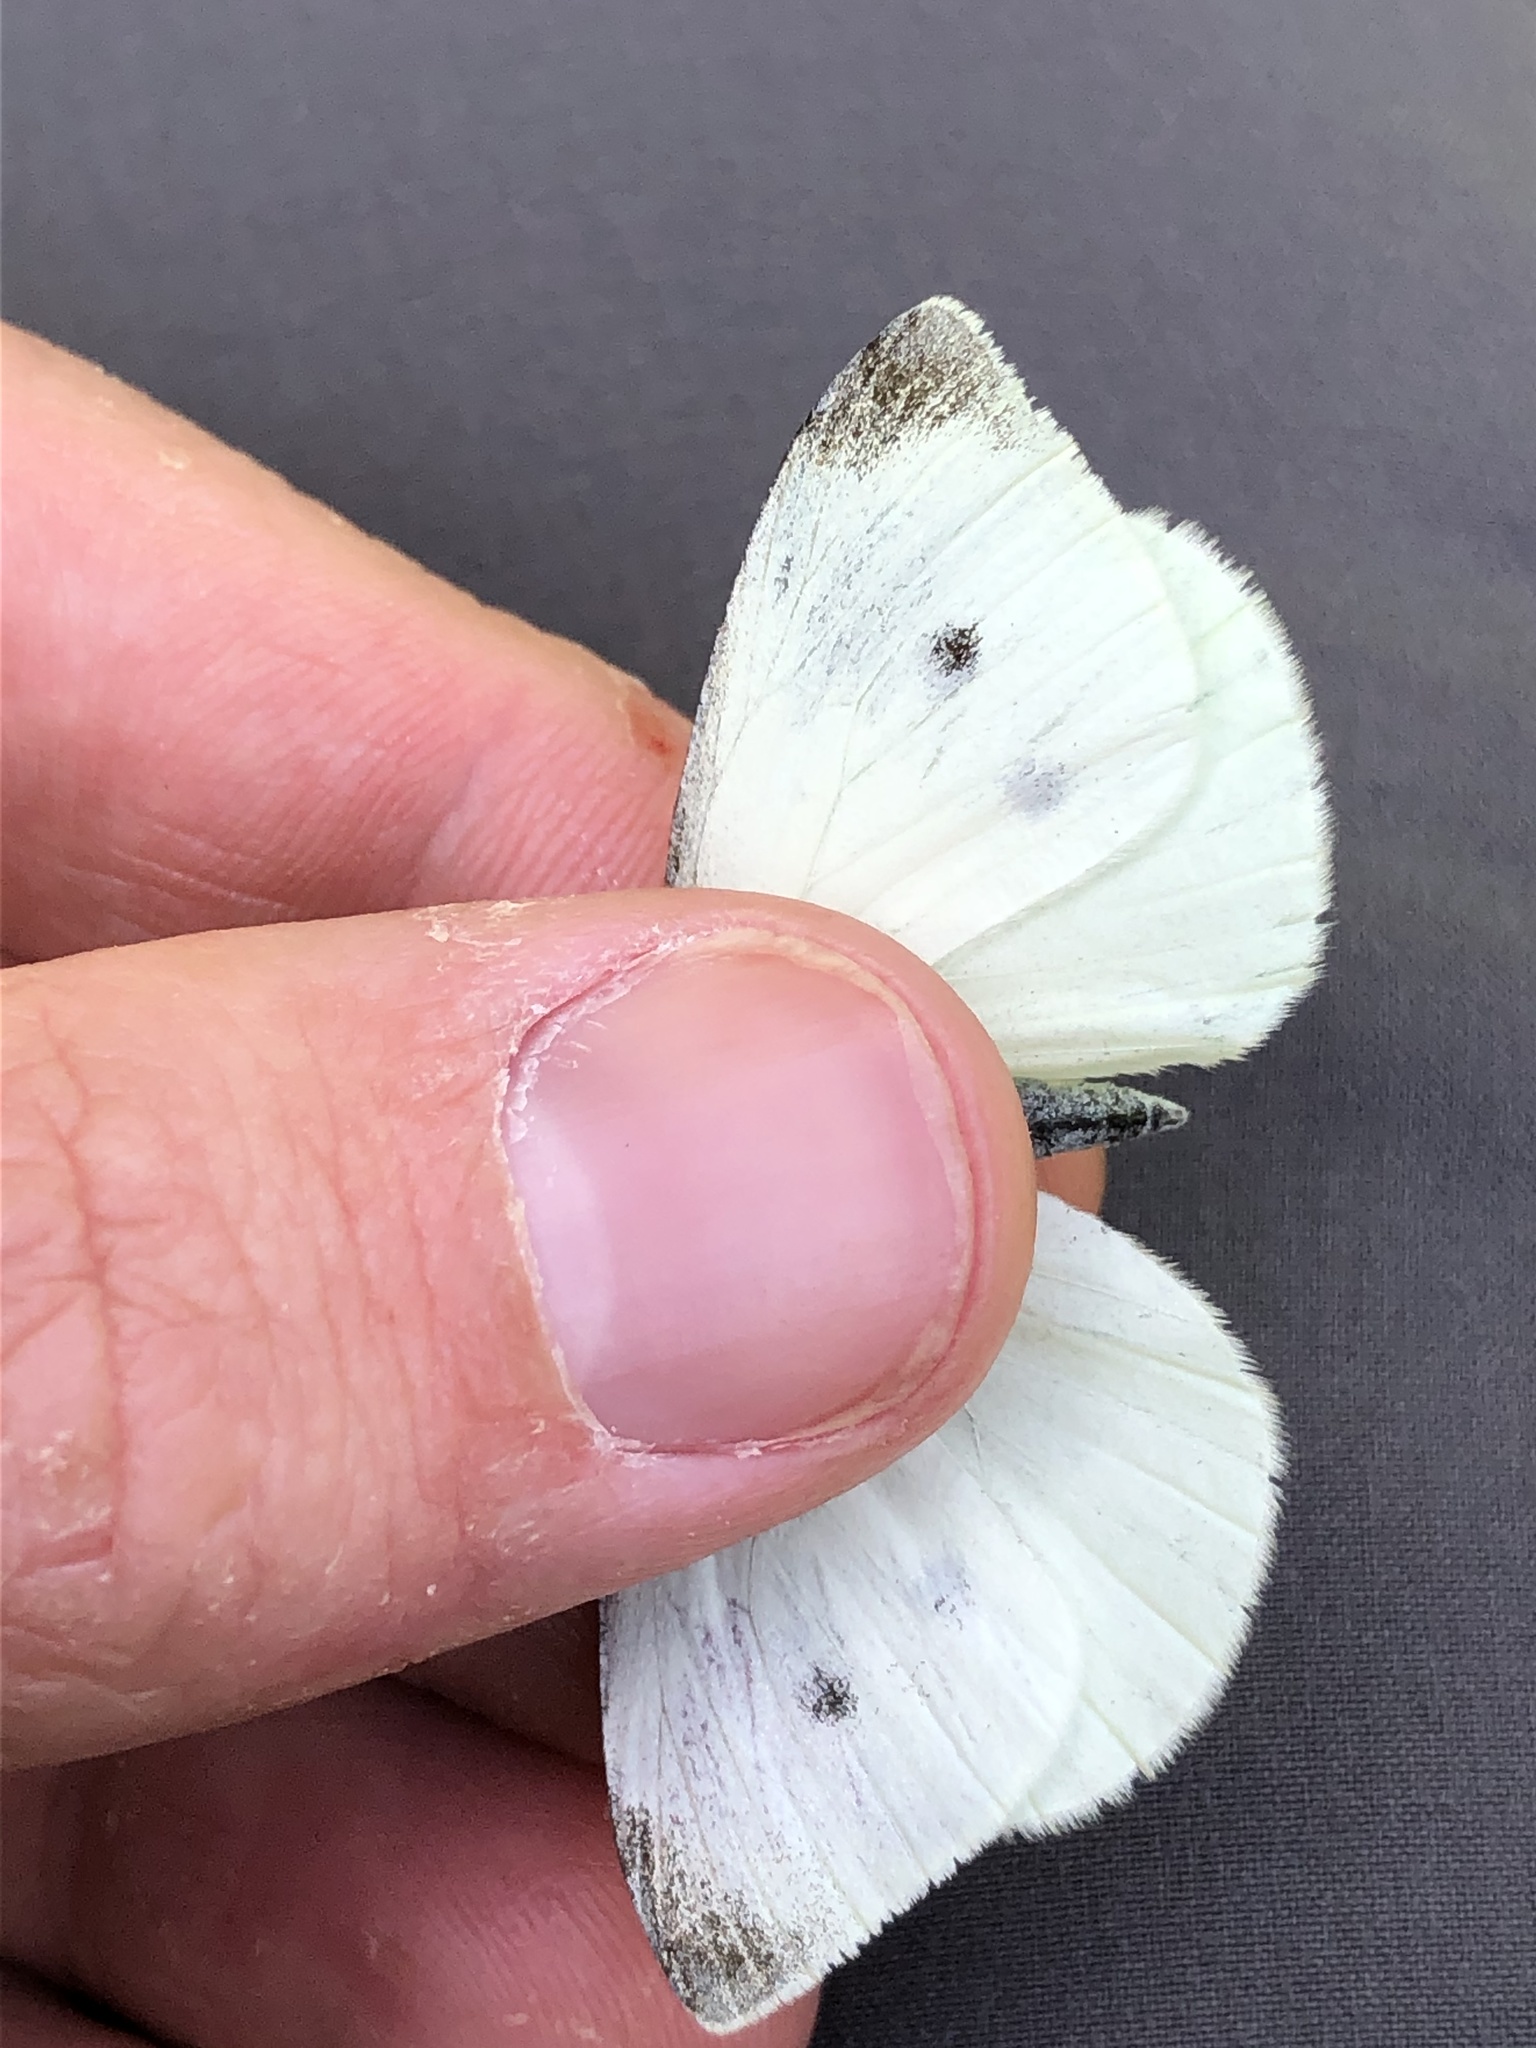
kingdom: Animalia
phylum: Arthropoda
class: Insecta
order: Lepidoptera
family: Pieridae
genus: Pieris
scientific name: Pieris rapae
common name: Small white
